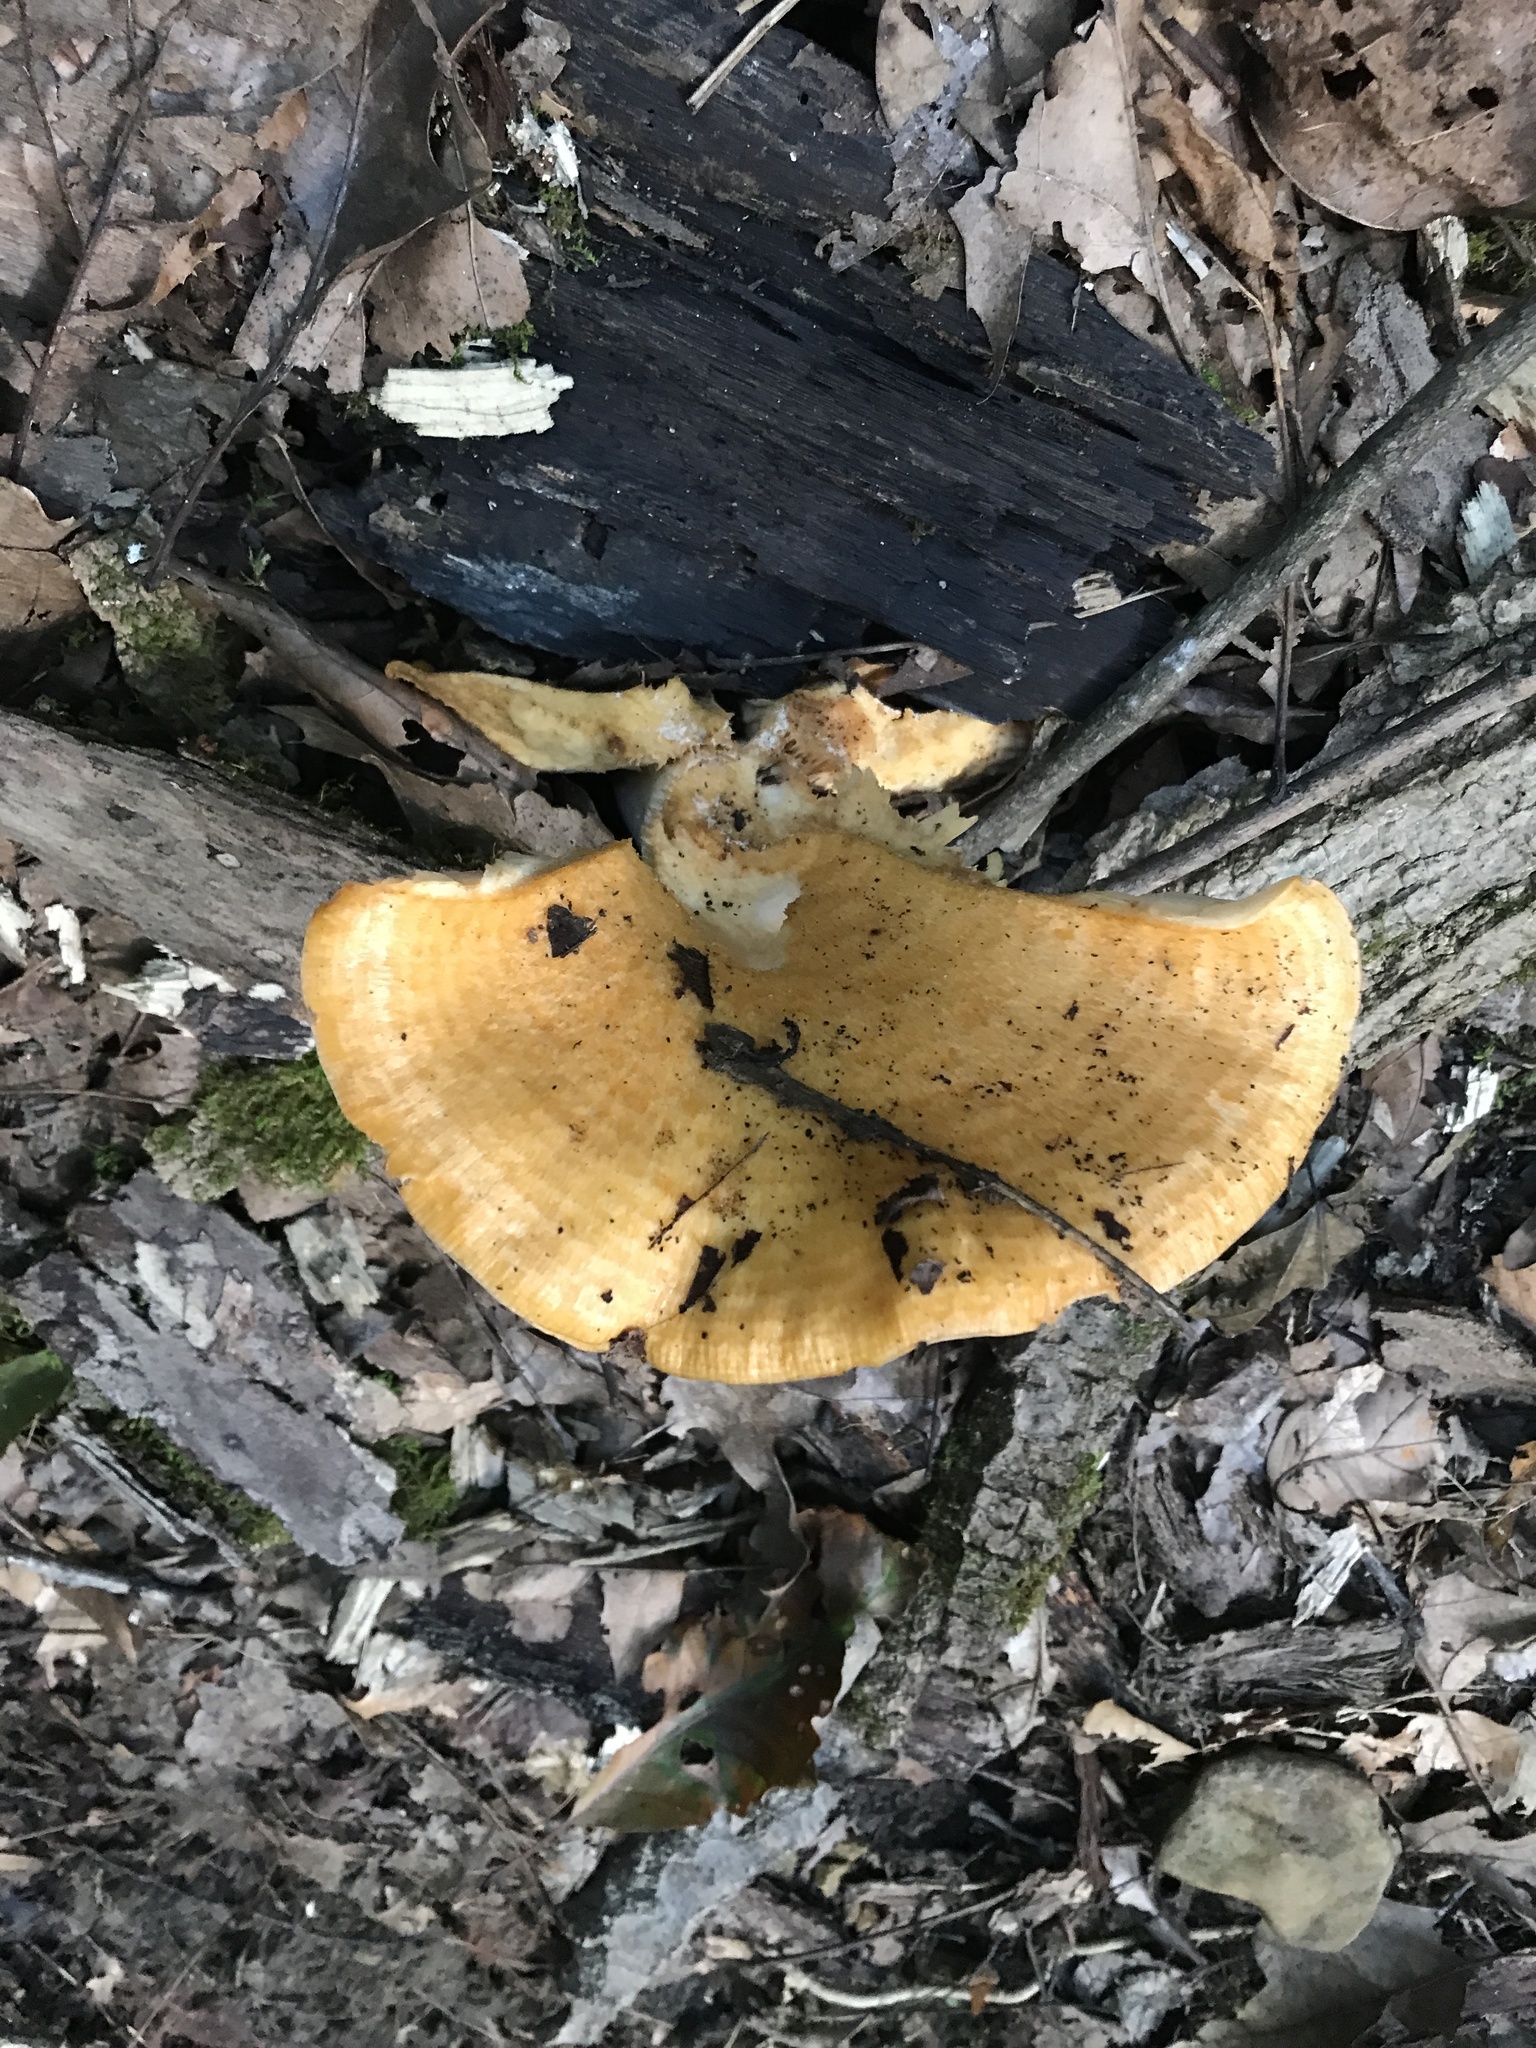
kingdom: Fungi
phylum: Basidiomycota
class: Agaricomycetes
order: Russulales
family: Russulaceae
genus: Lactarius
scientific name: Lactarius salmoneus
